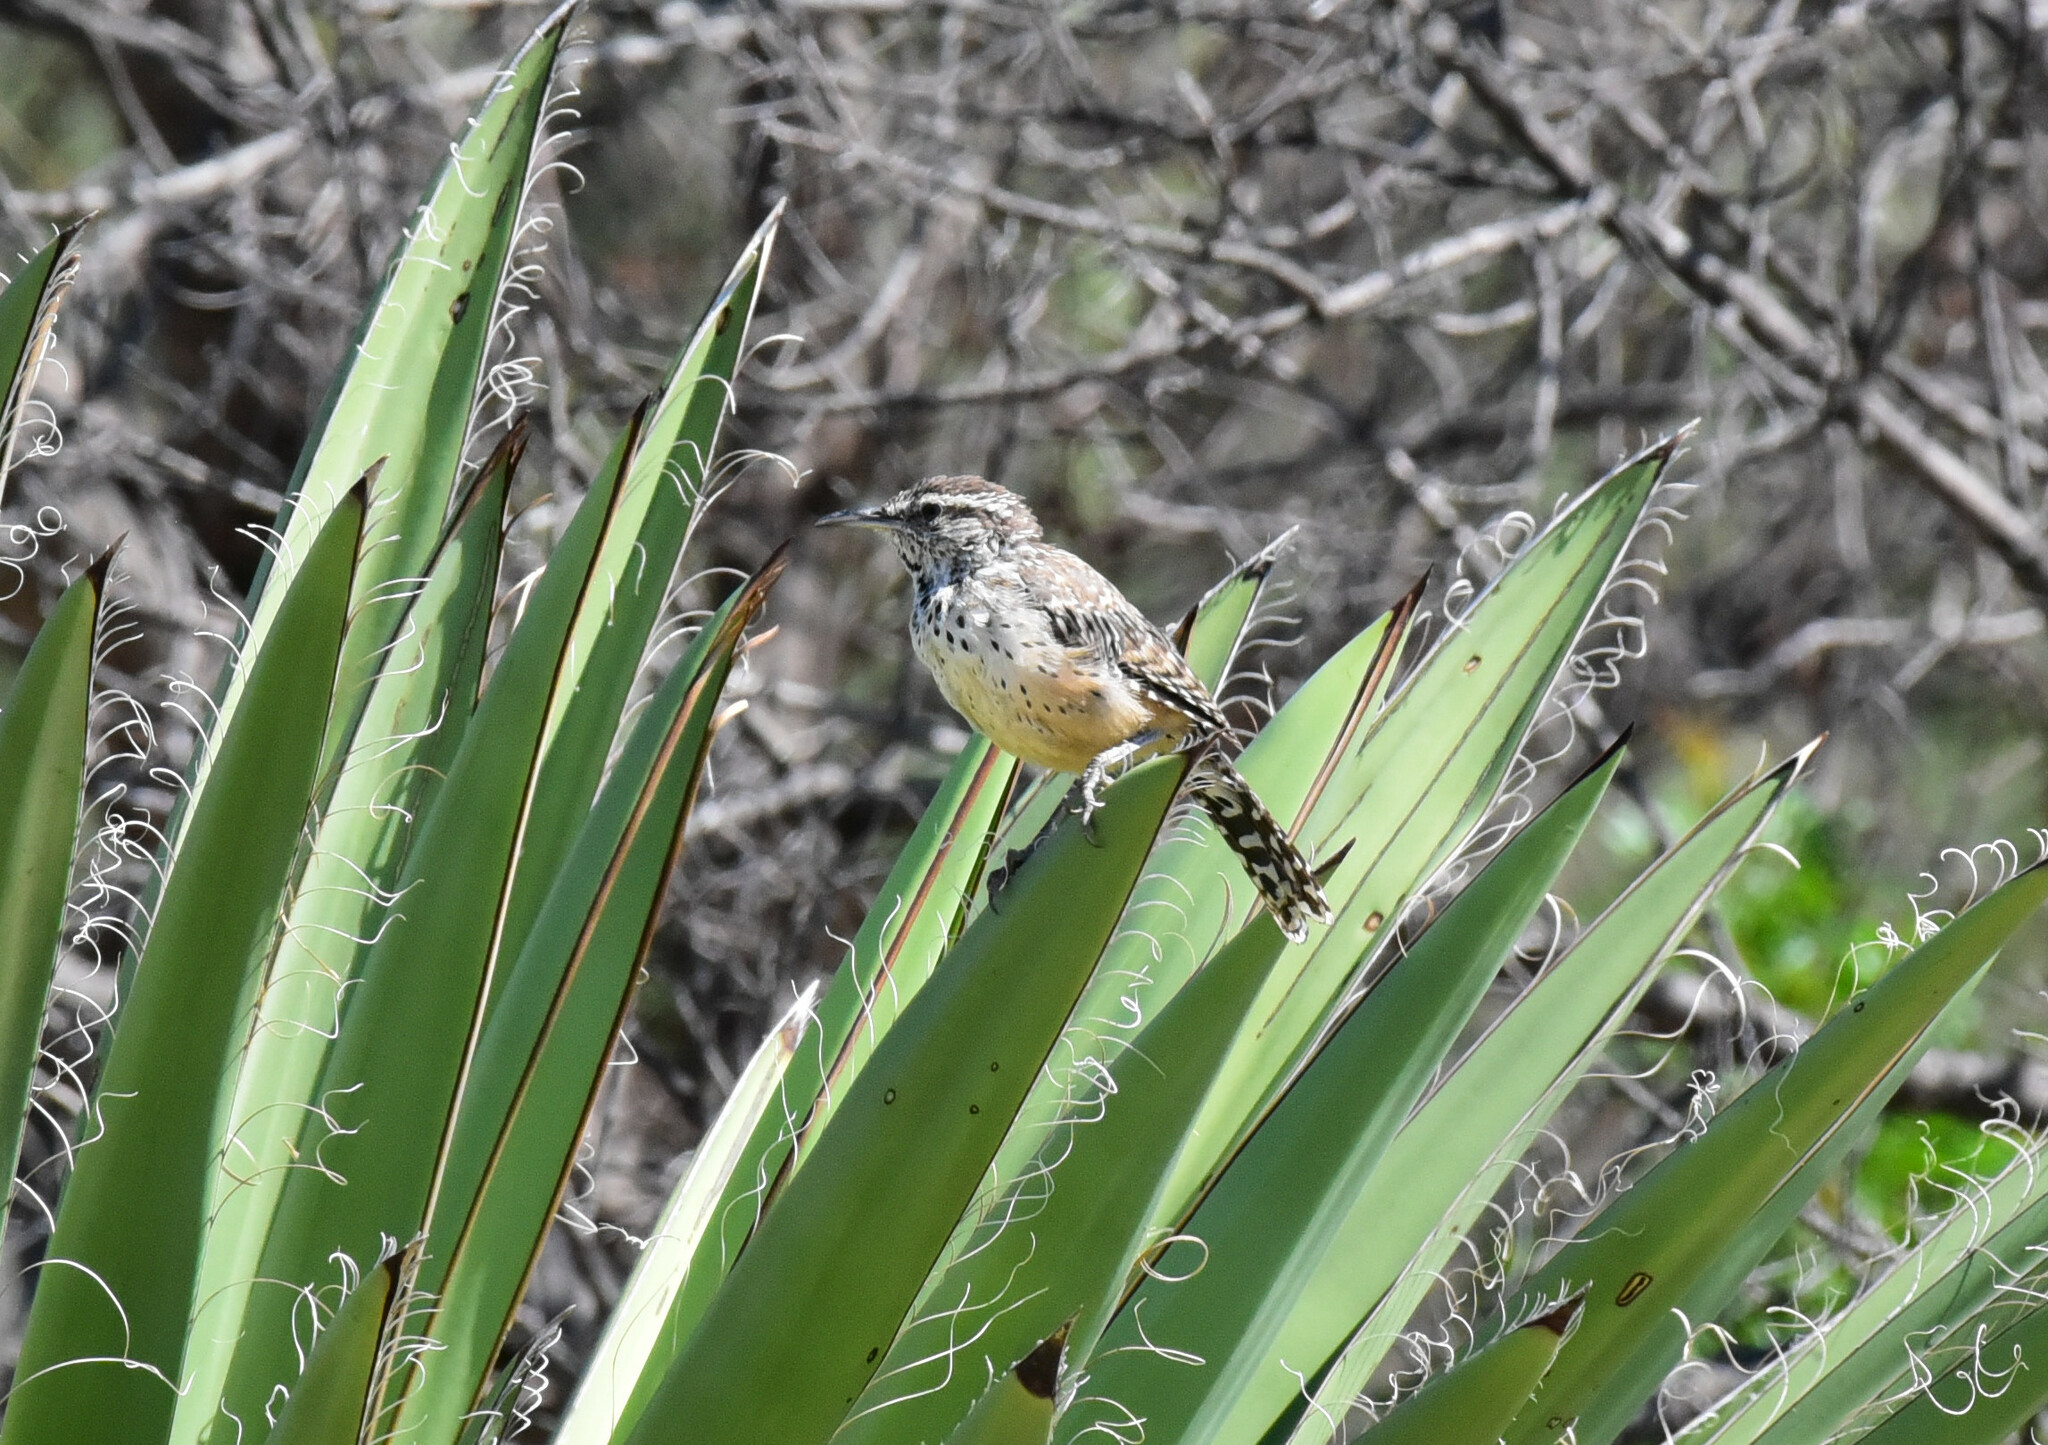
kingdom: Animalia
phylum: Chordata
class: Aves
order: Passeriformes
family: Troglodytidae
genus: Campylorhynchus
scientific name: Campylorhynchus brunneicapillus
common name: Cactus wren
